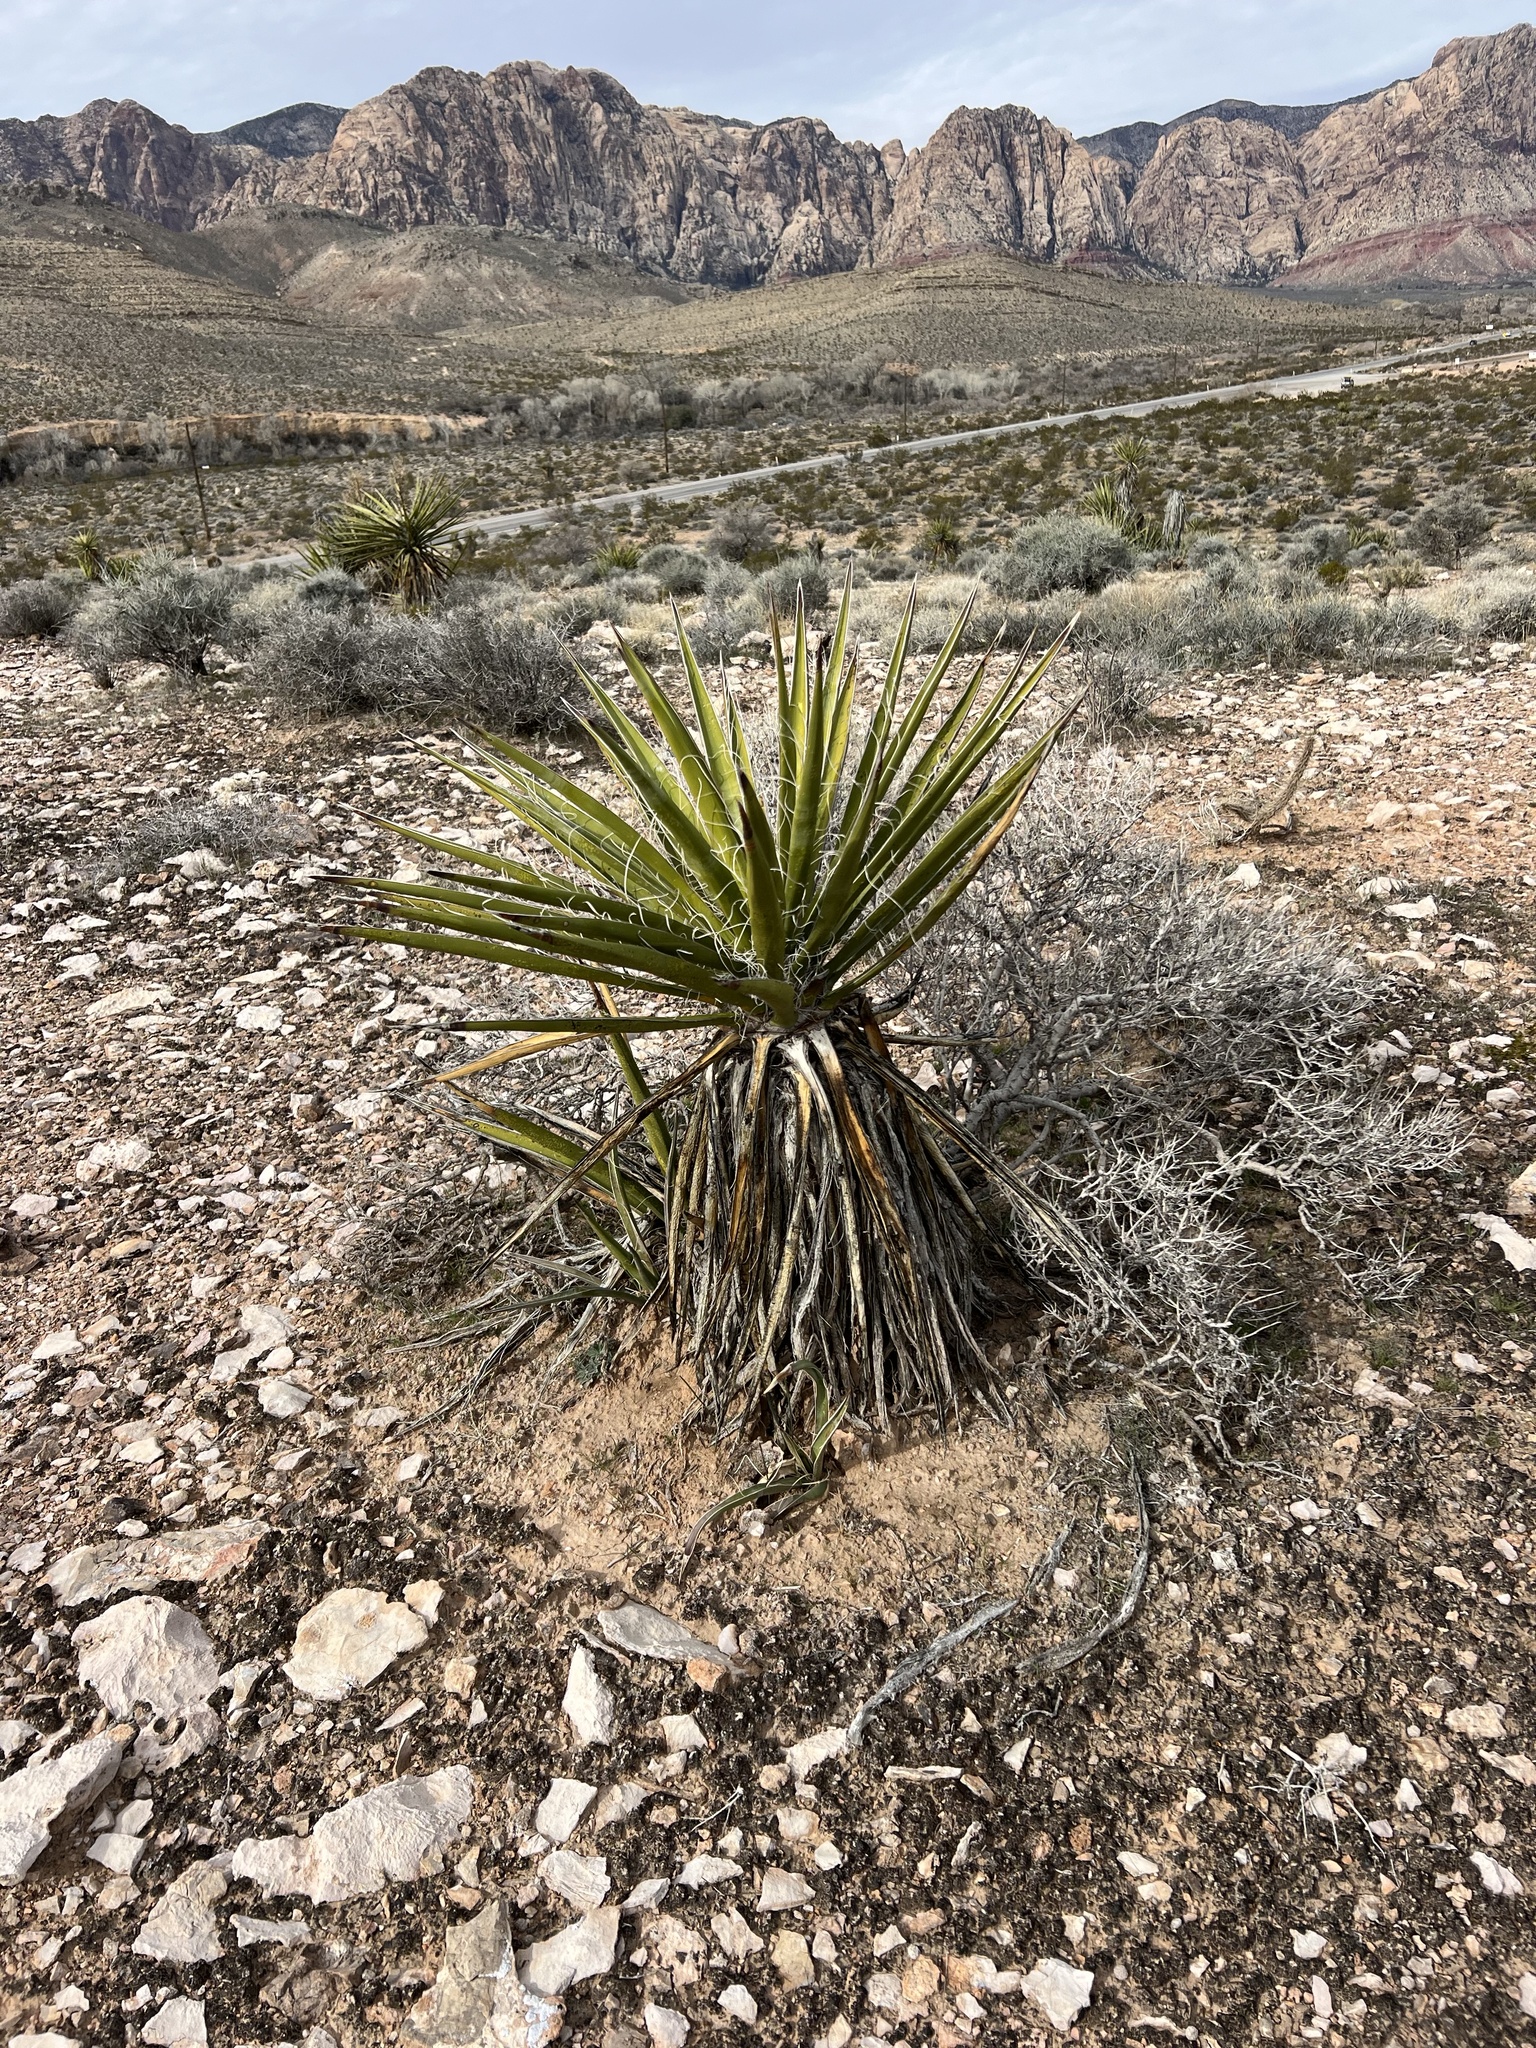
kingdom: Plantae
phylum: Tracheophyta
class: Liliopsida
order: Asparagales
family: Asparagaceae
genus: Yucca
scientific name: Yucca schidigera
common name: Mojave yucca
